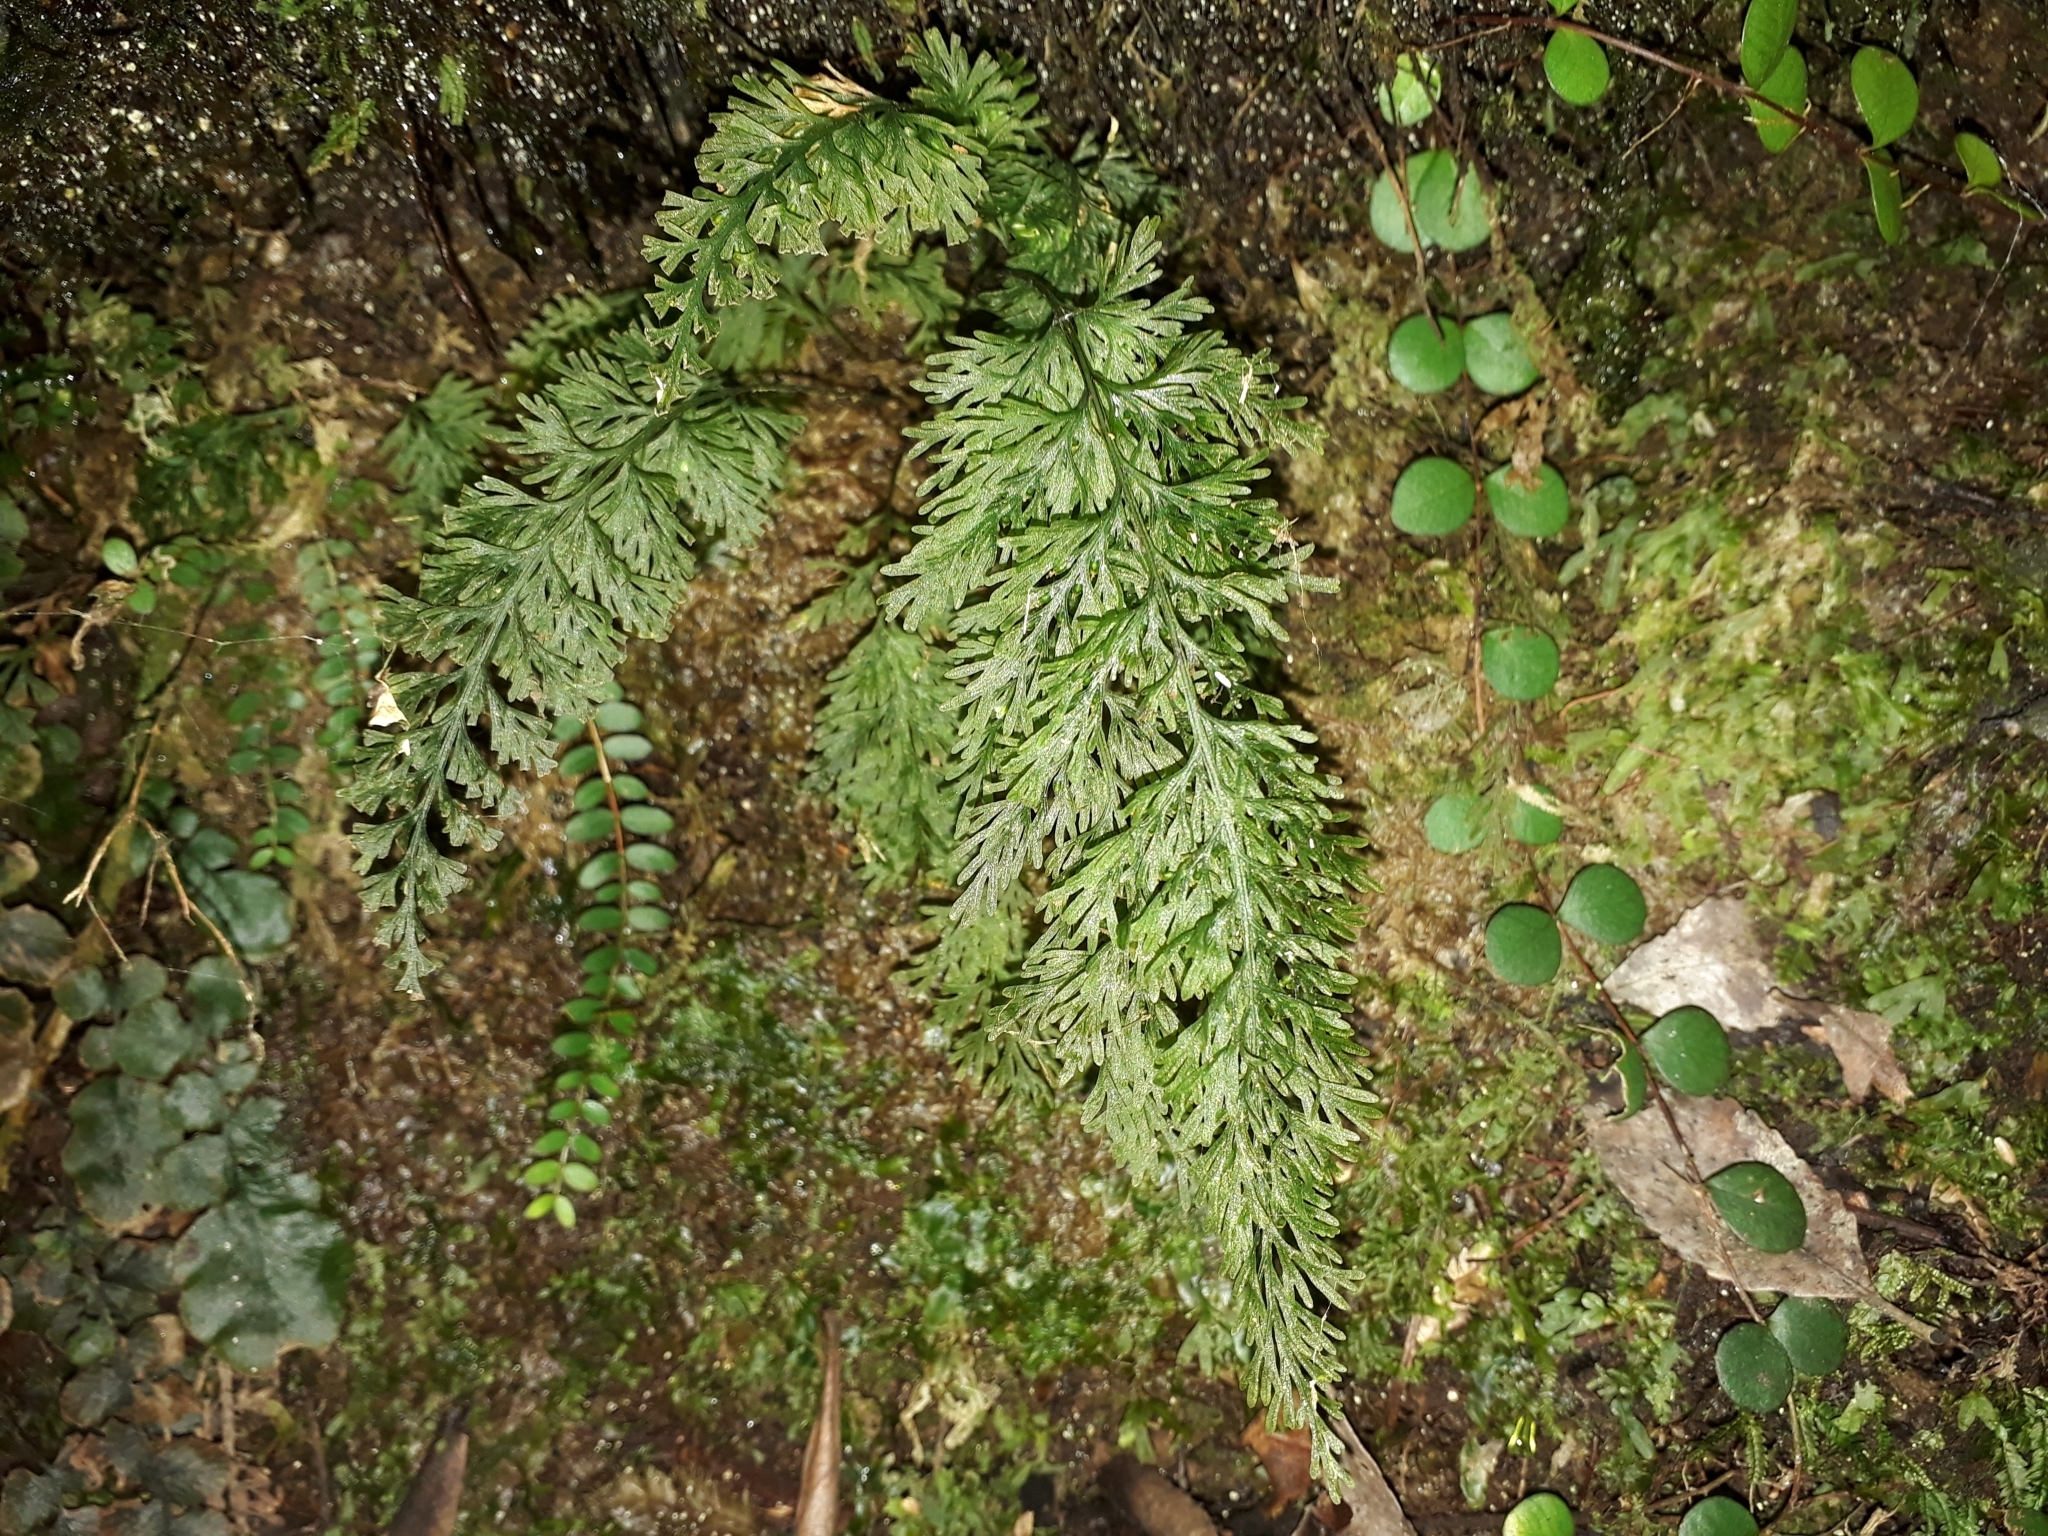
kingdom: Plantae
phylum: Tracheophyta
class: Polypodiopsida
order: Hymenophyllales
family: Hymenophyllaceae
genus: Abrodictyum
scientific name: Abrodictyum strictum
